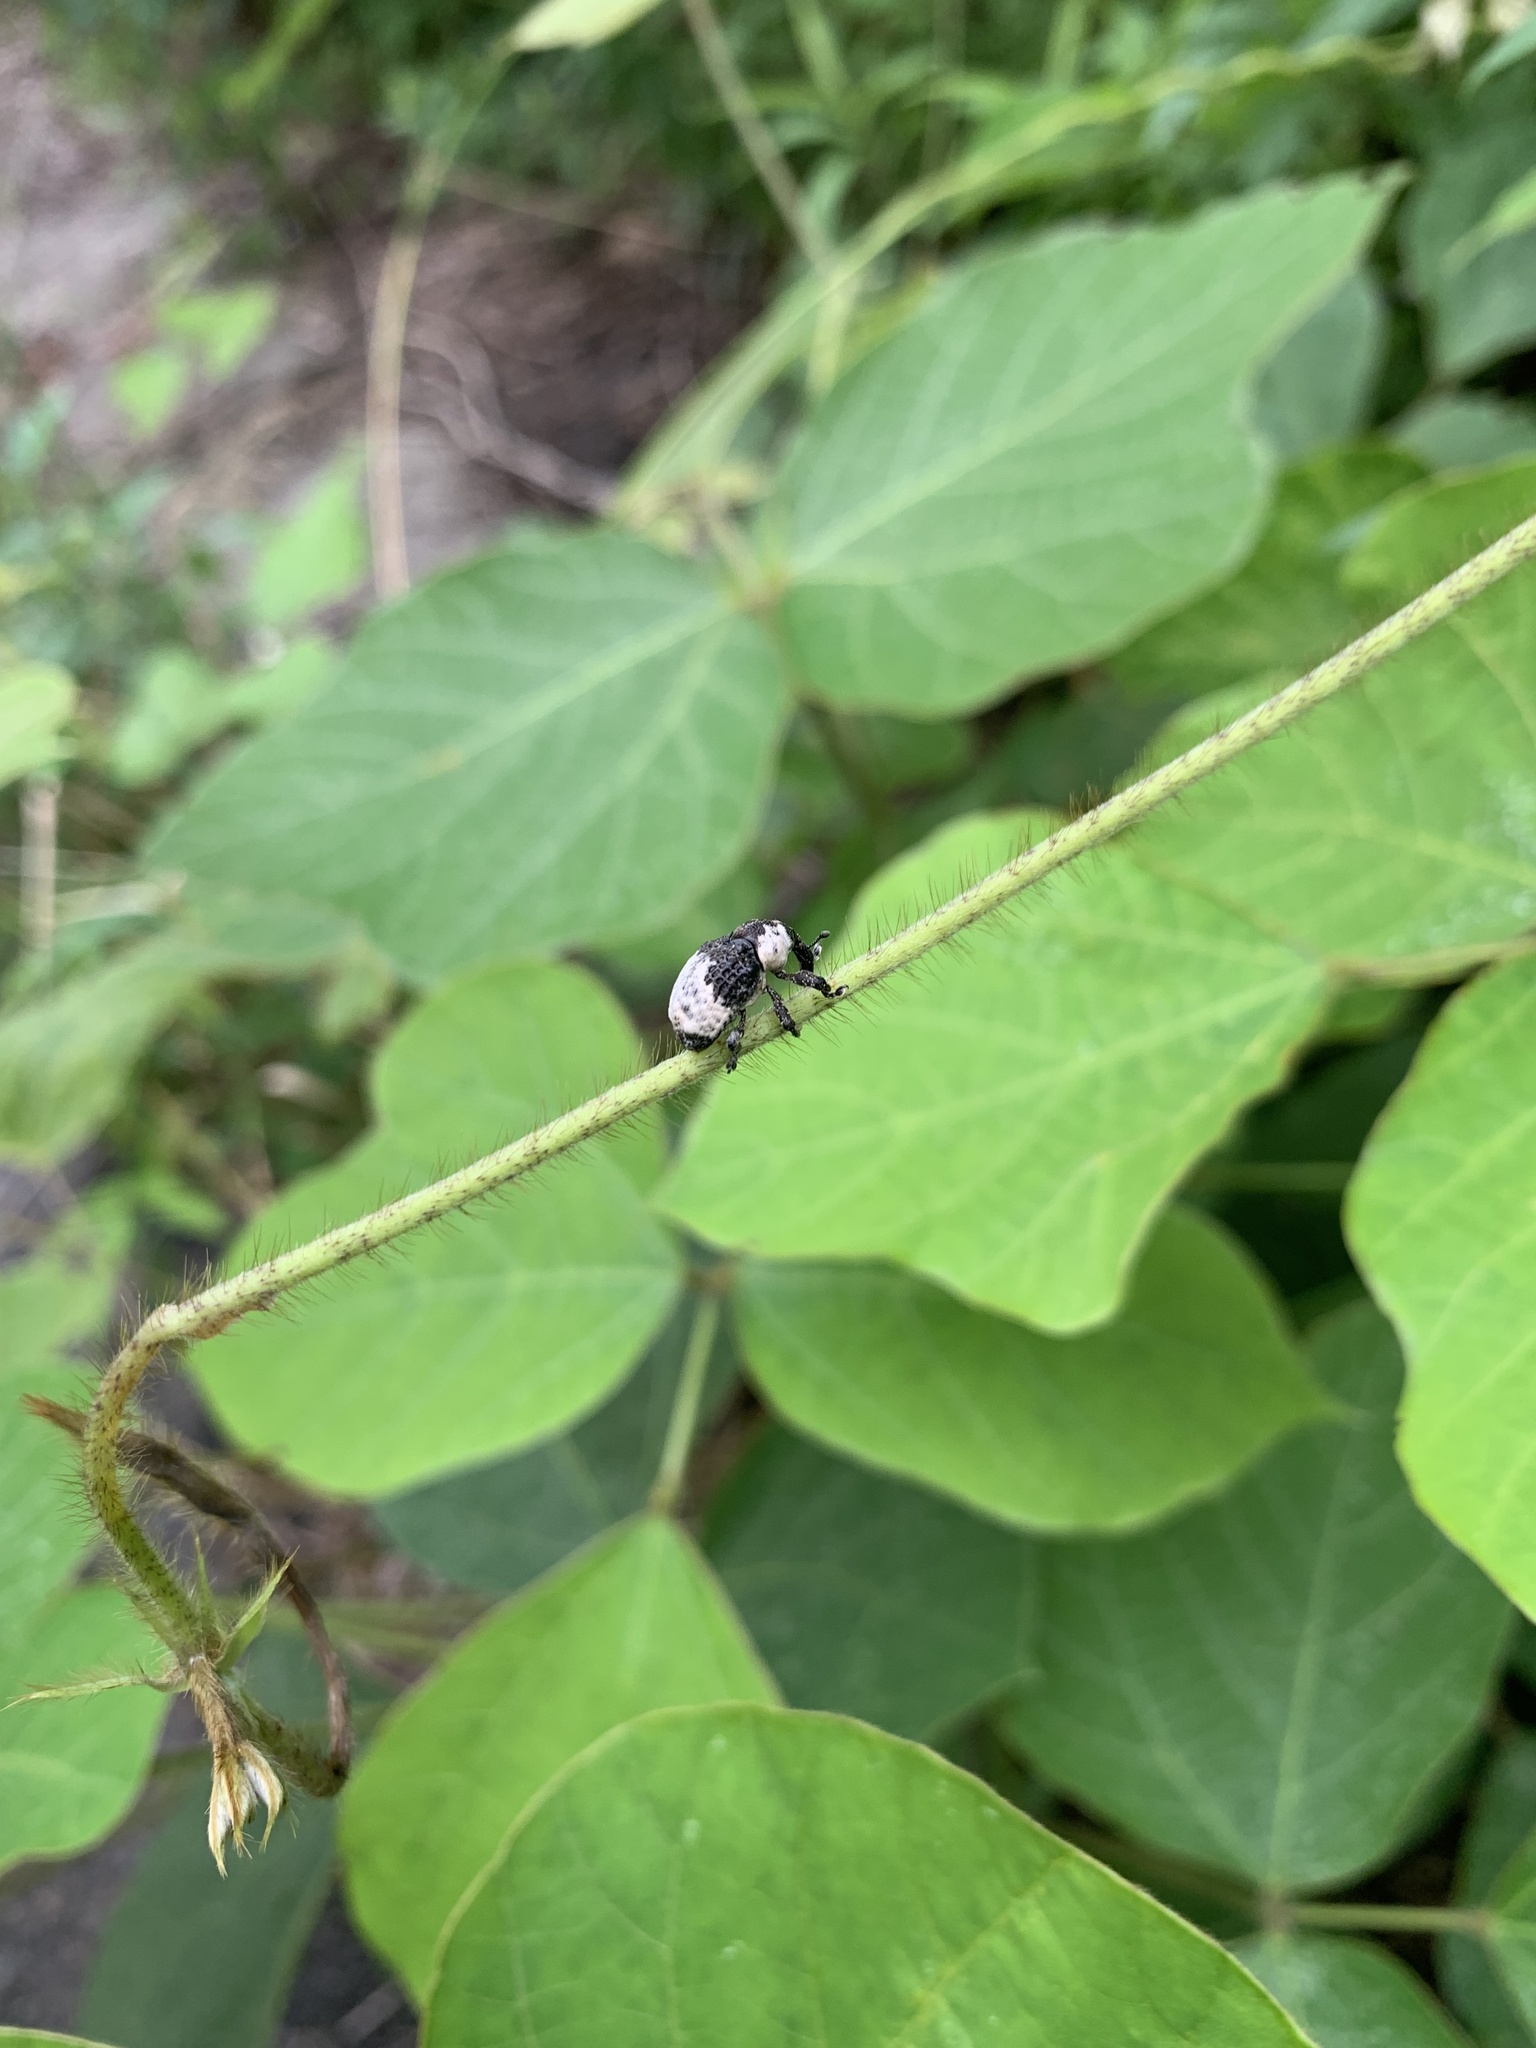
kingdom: Animalia
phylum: Arthropoda
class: Insecta
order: Coleoptera
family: Curculionidae
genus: Alcides
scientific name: Alcides trifidus
